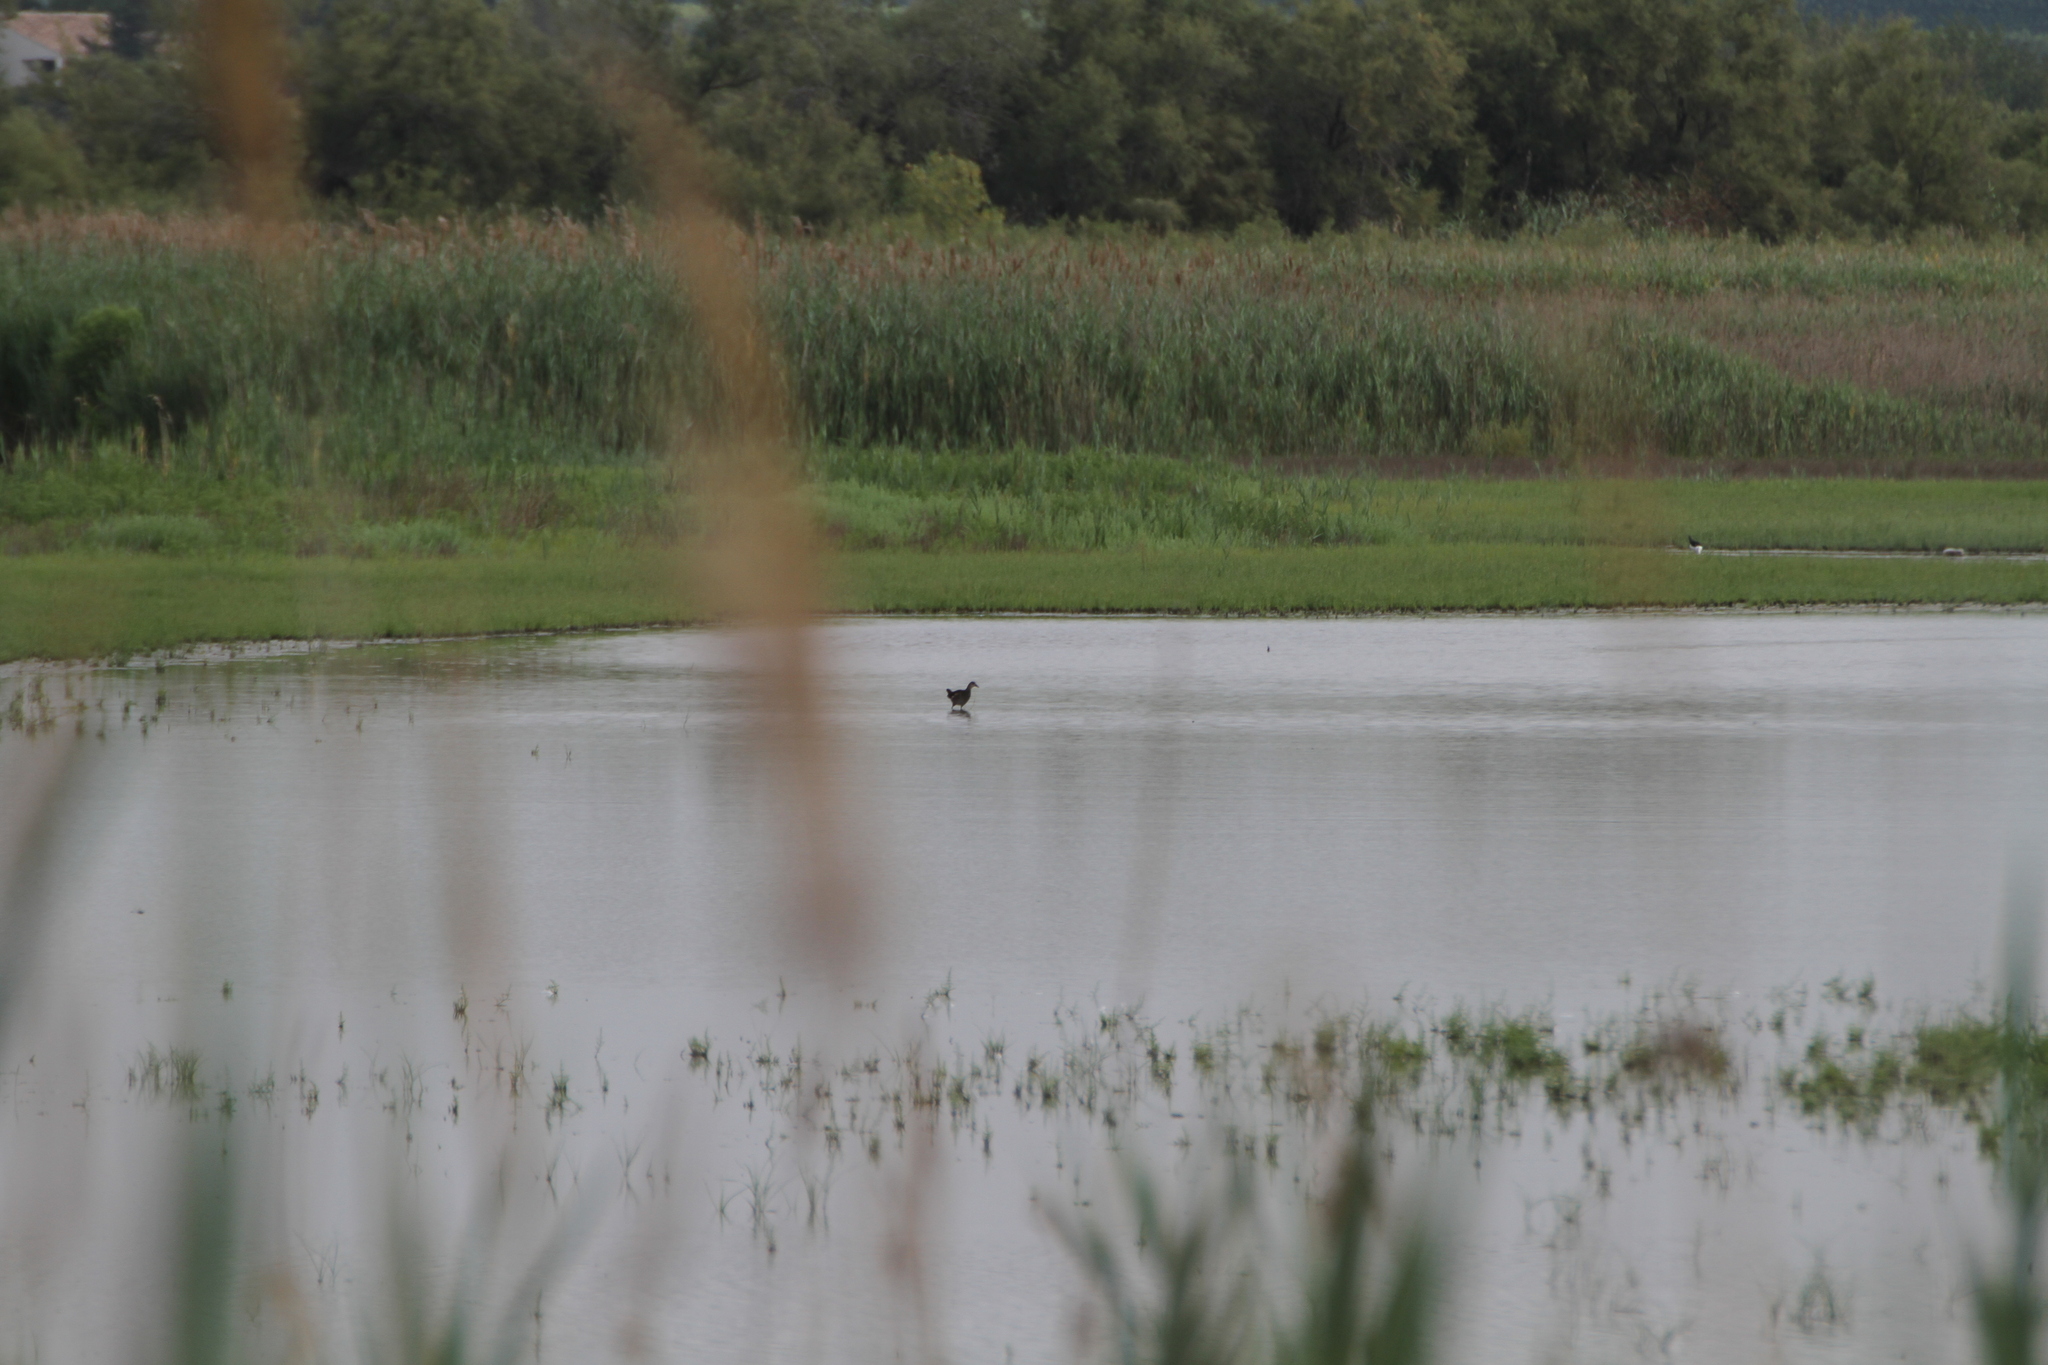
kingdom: Animalia
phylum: Chordata
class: Aves
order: Gruiformes
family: Rallidae
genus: Gallinula
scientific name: Gallinula chloropus
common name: Common moorhen
